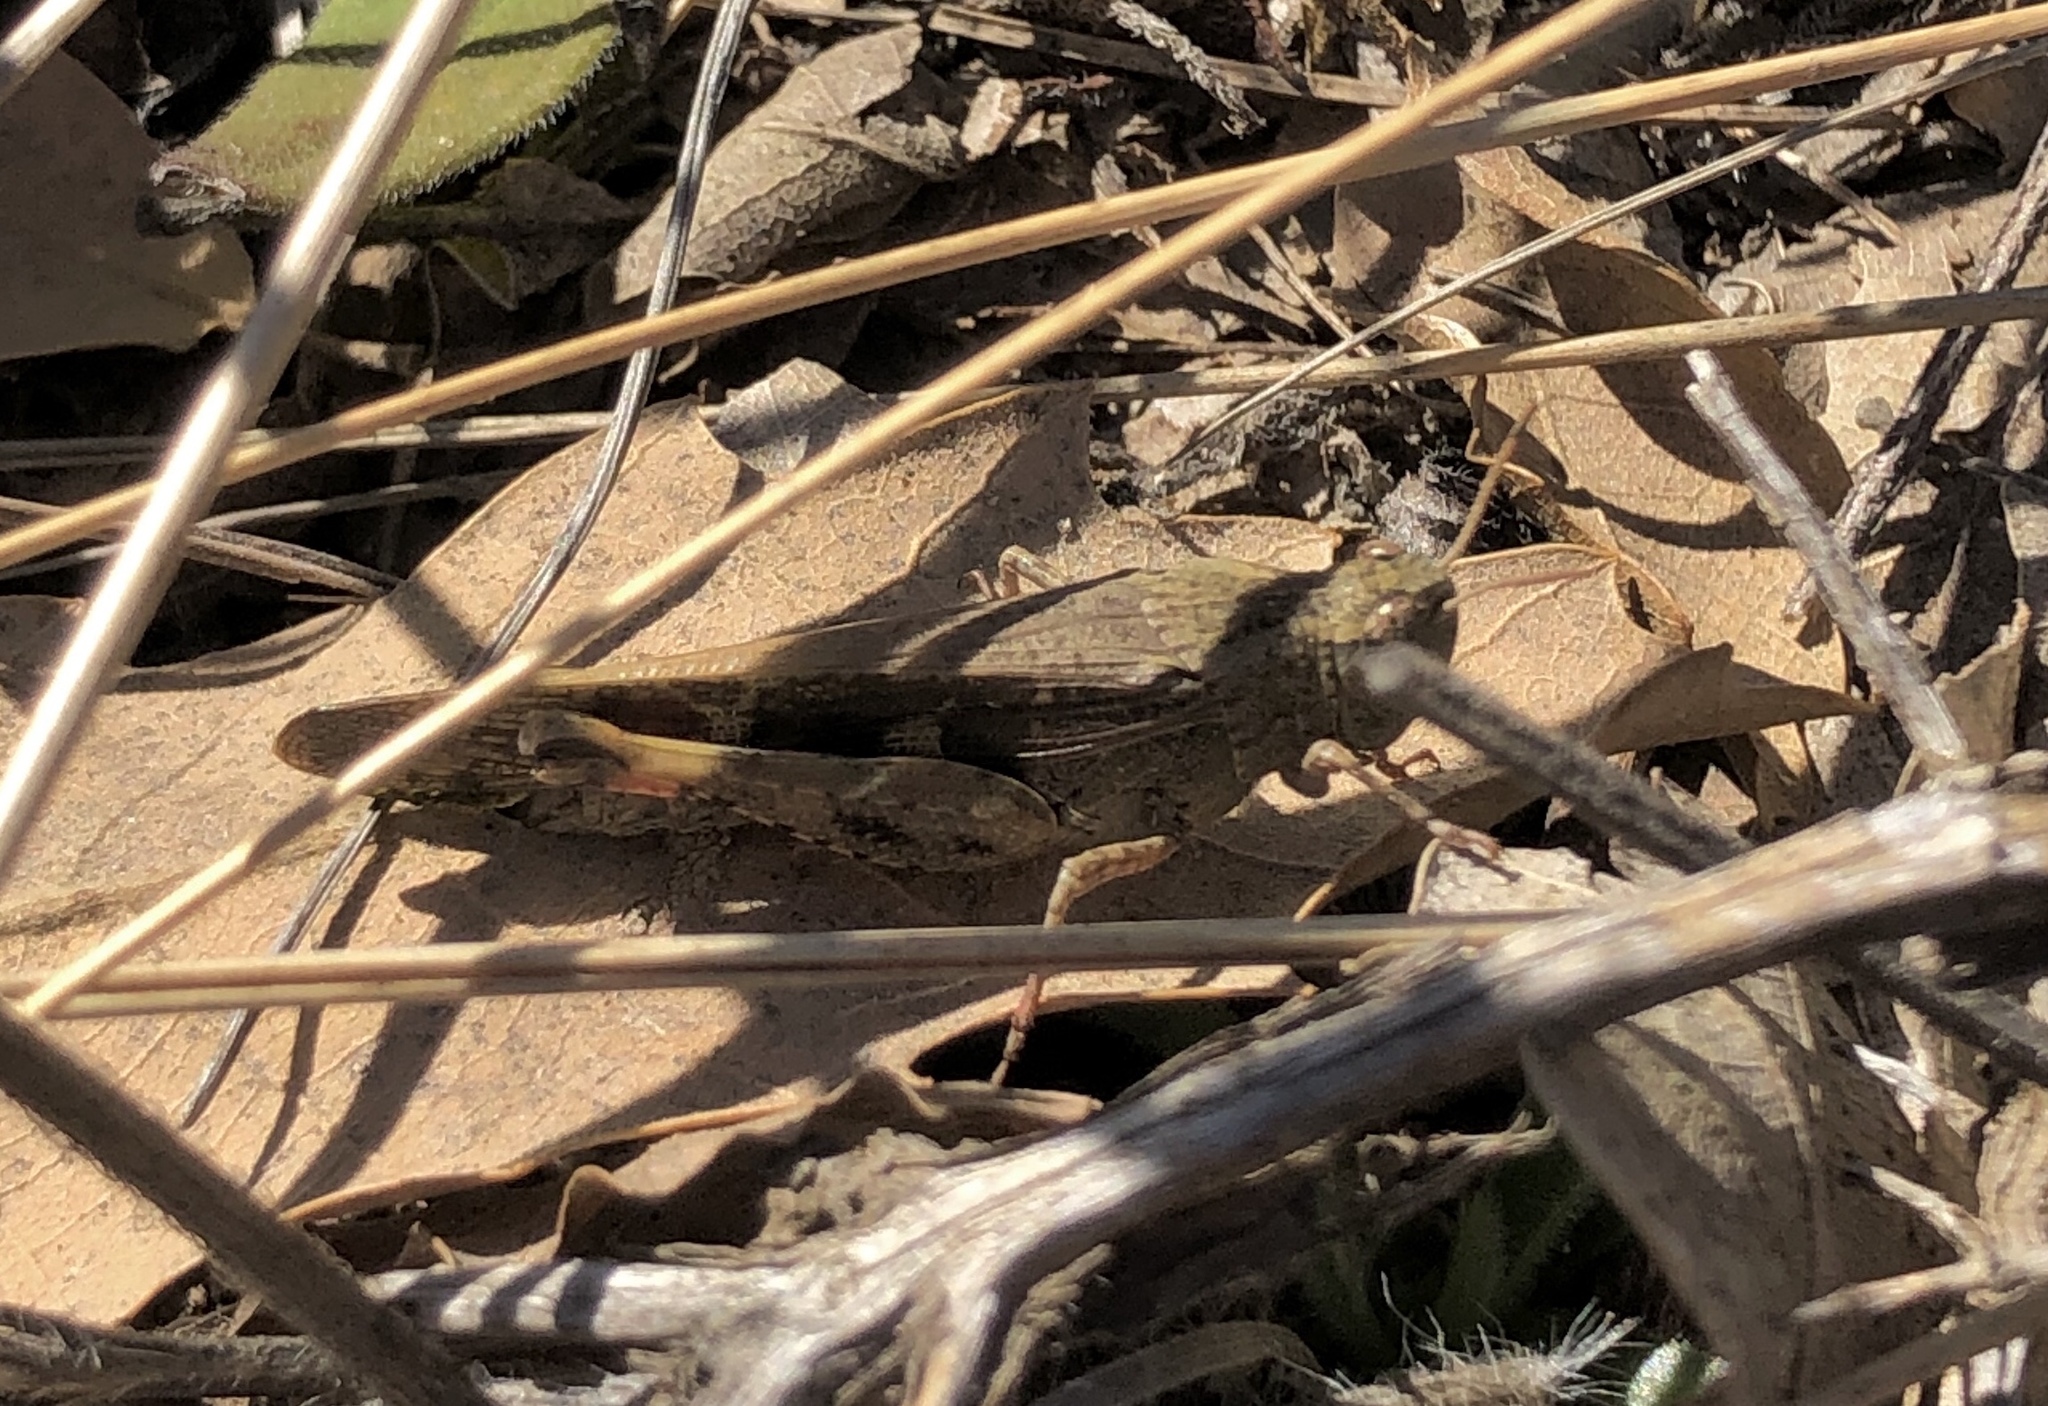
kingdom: Animalia
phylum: Arthropoda
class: Insecta
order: Orthoptera
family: Acrididae
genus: Aiolopus
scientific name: Aiolopus strepens
